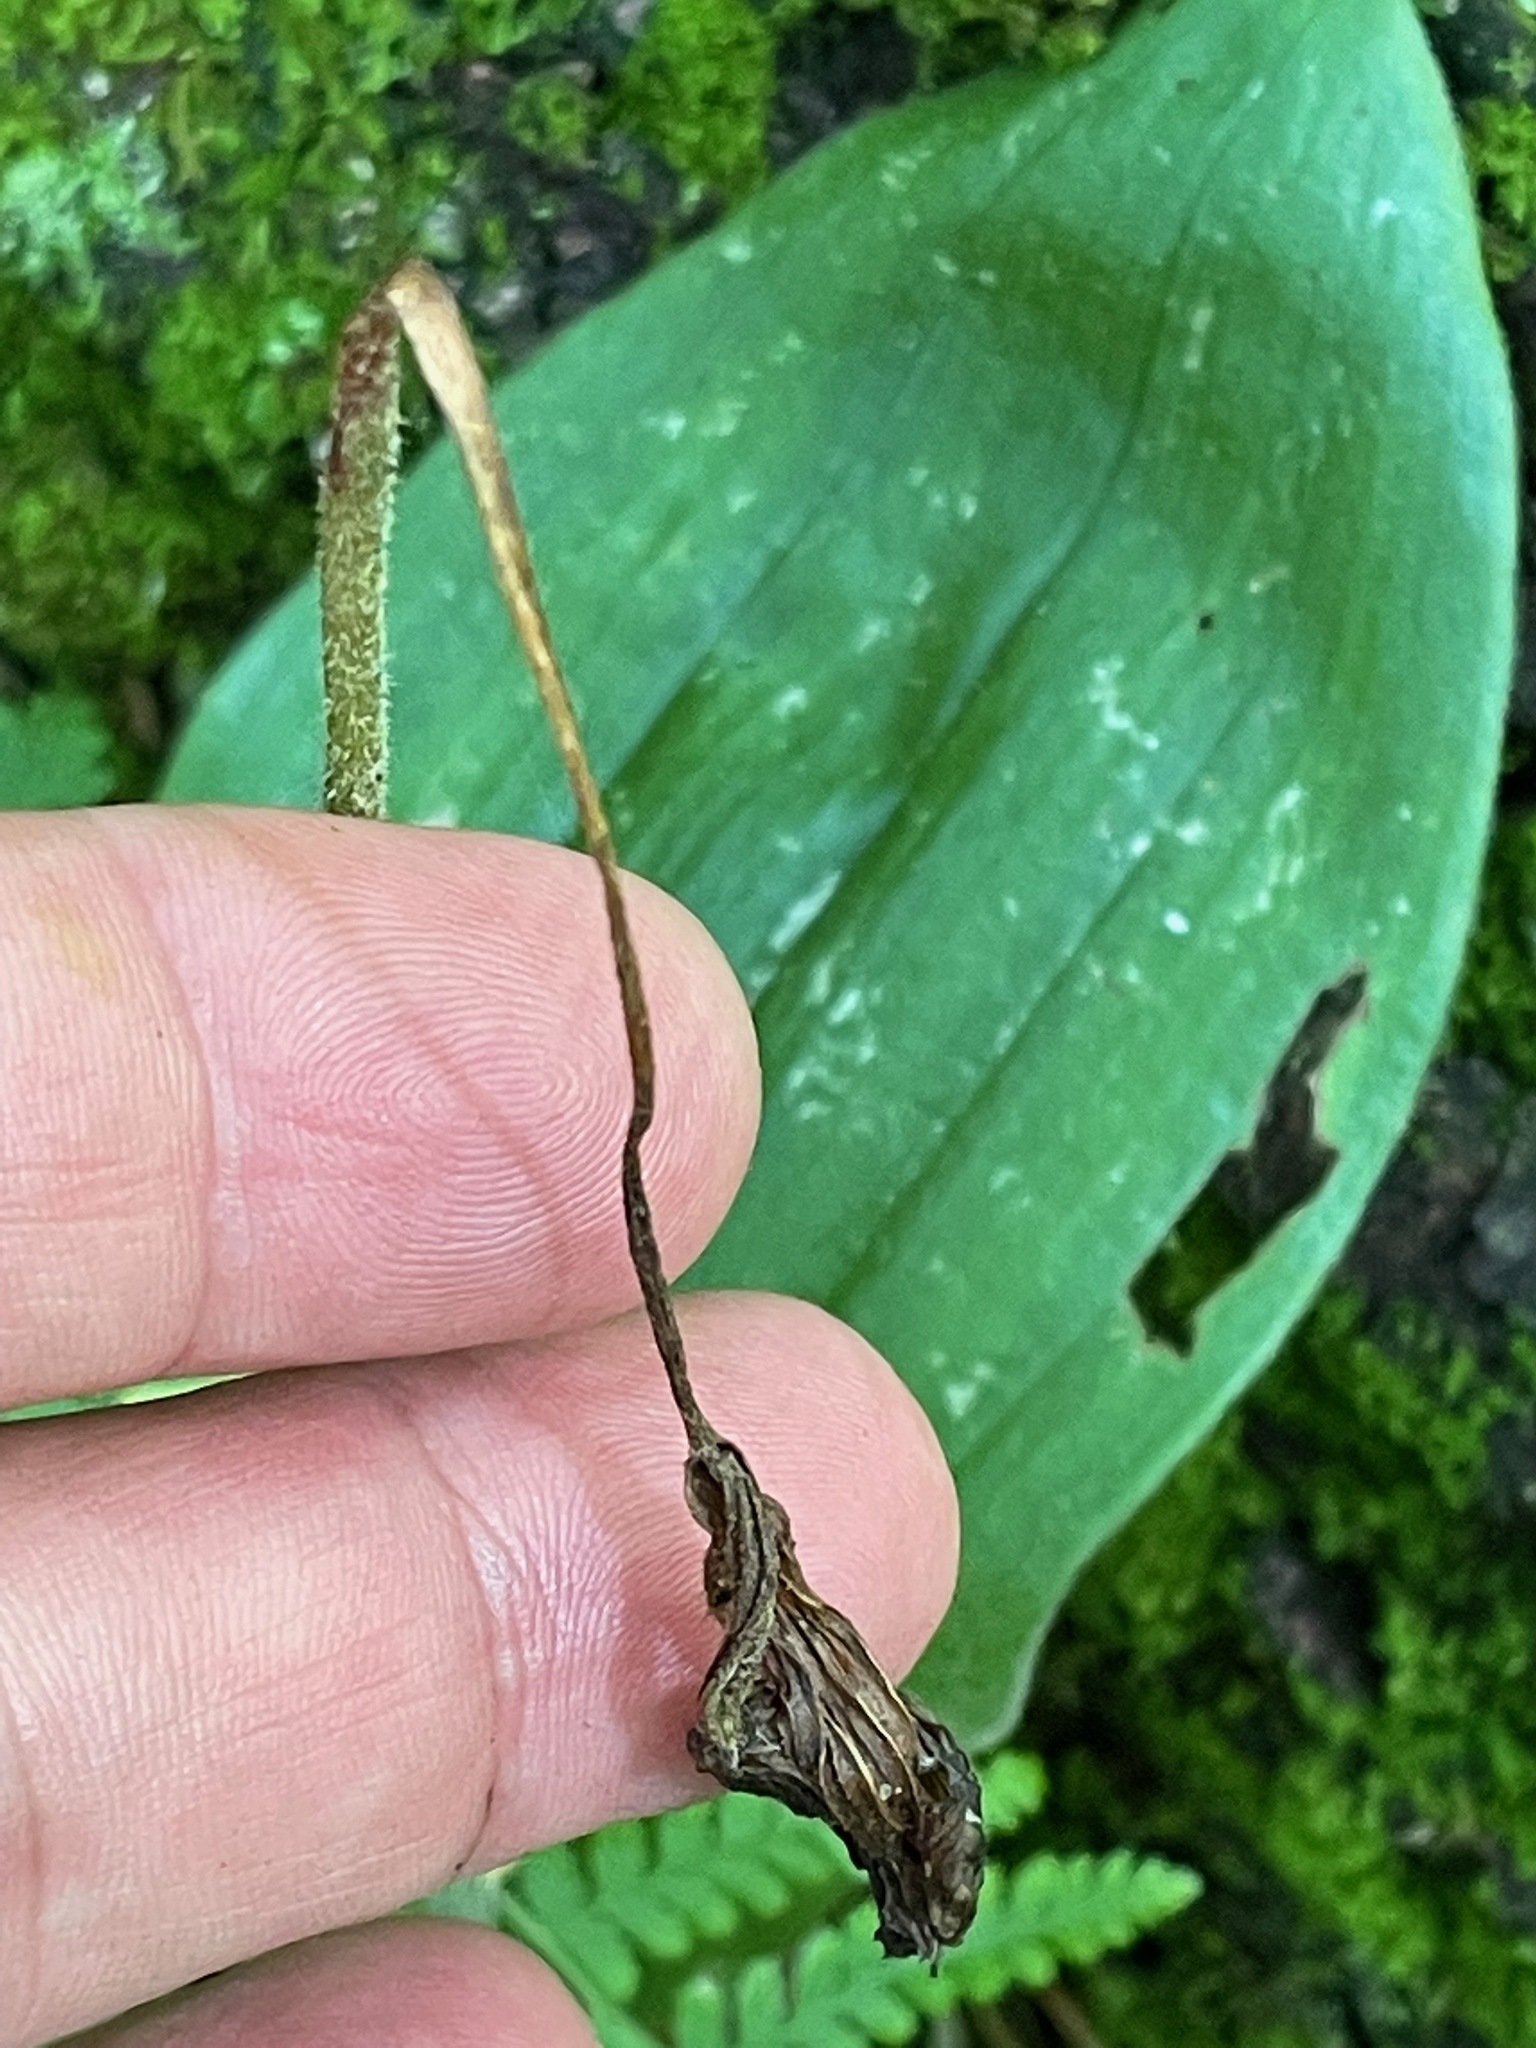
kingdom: Plantae
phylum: Tracheophyta
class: Liliopsida
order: Asparagales
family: Orchidaceae
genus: Cypripedium
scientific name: Cypripedium acaule
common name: Pink lady's-slipper
